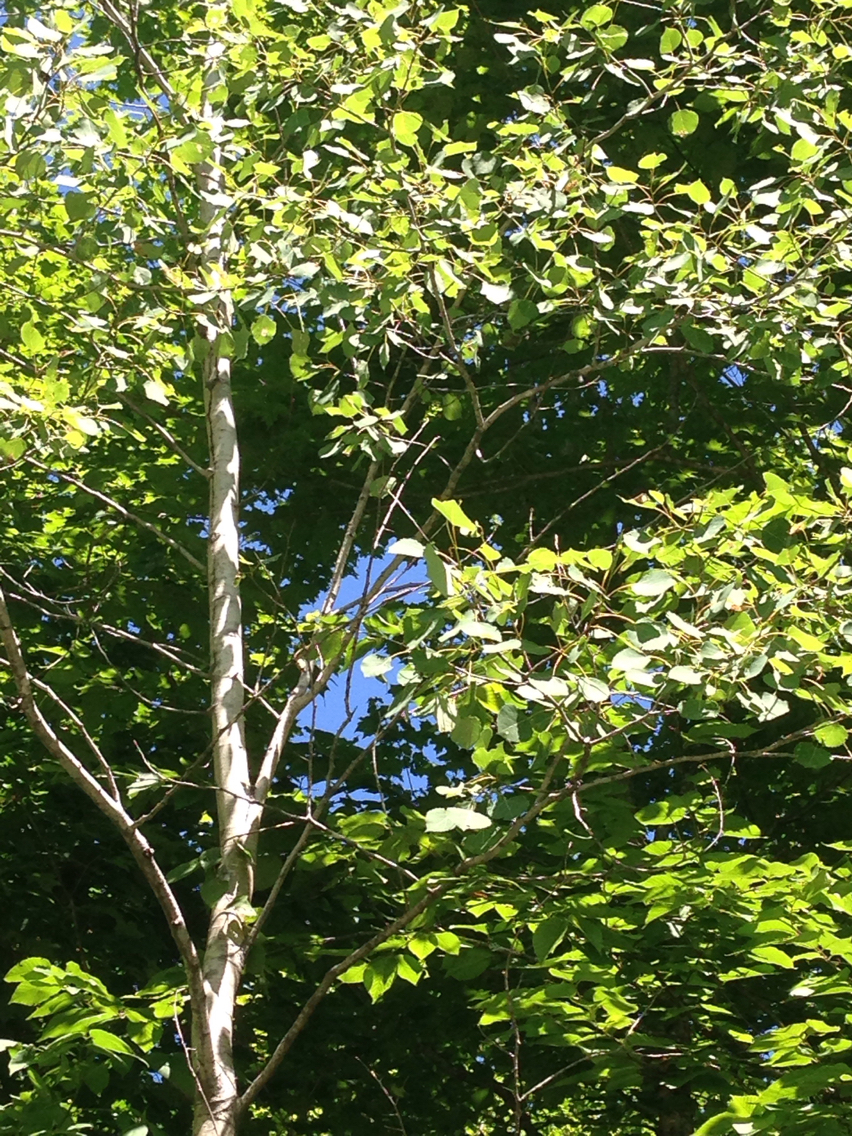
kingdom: Plantae
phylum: Tracheophyta
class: Magnoliopsida
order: Malpighiales
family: Salicaceae
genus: Populus
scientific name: Populus tremuloides
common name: Quaking aspen
